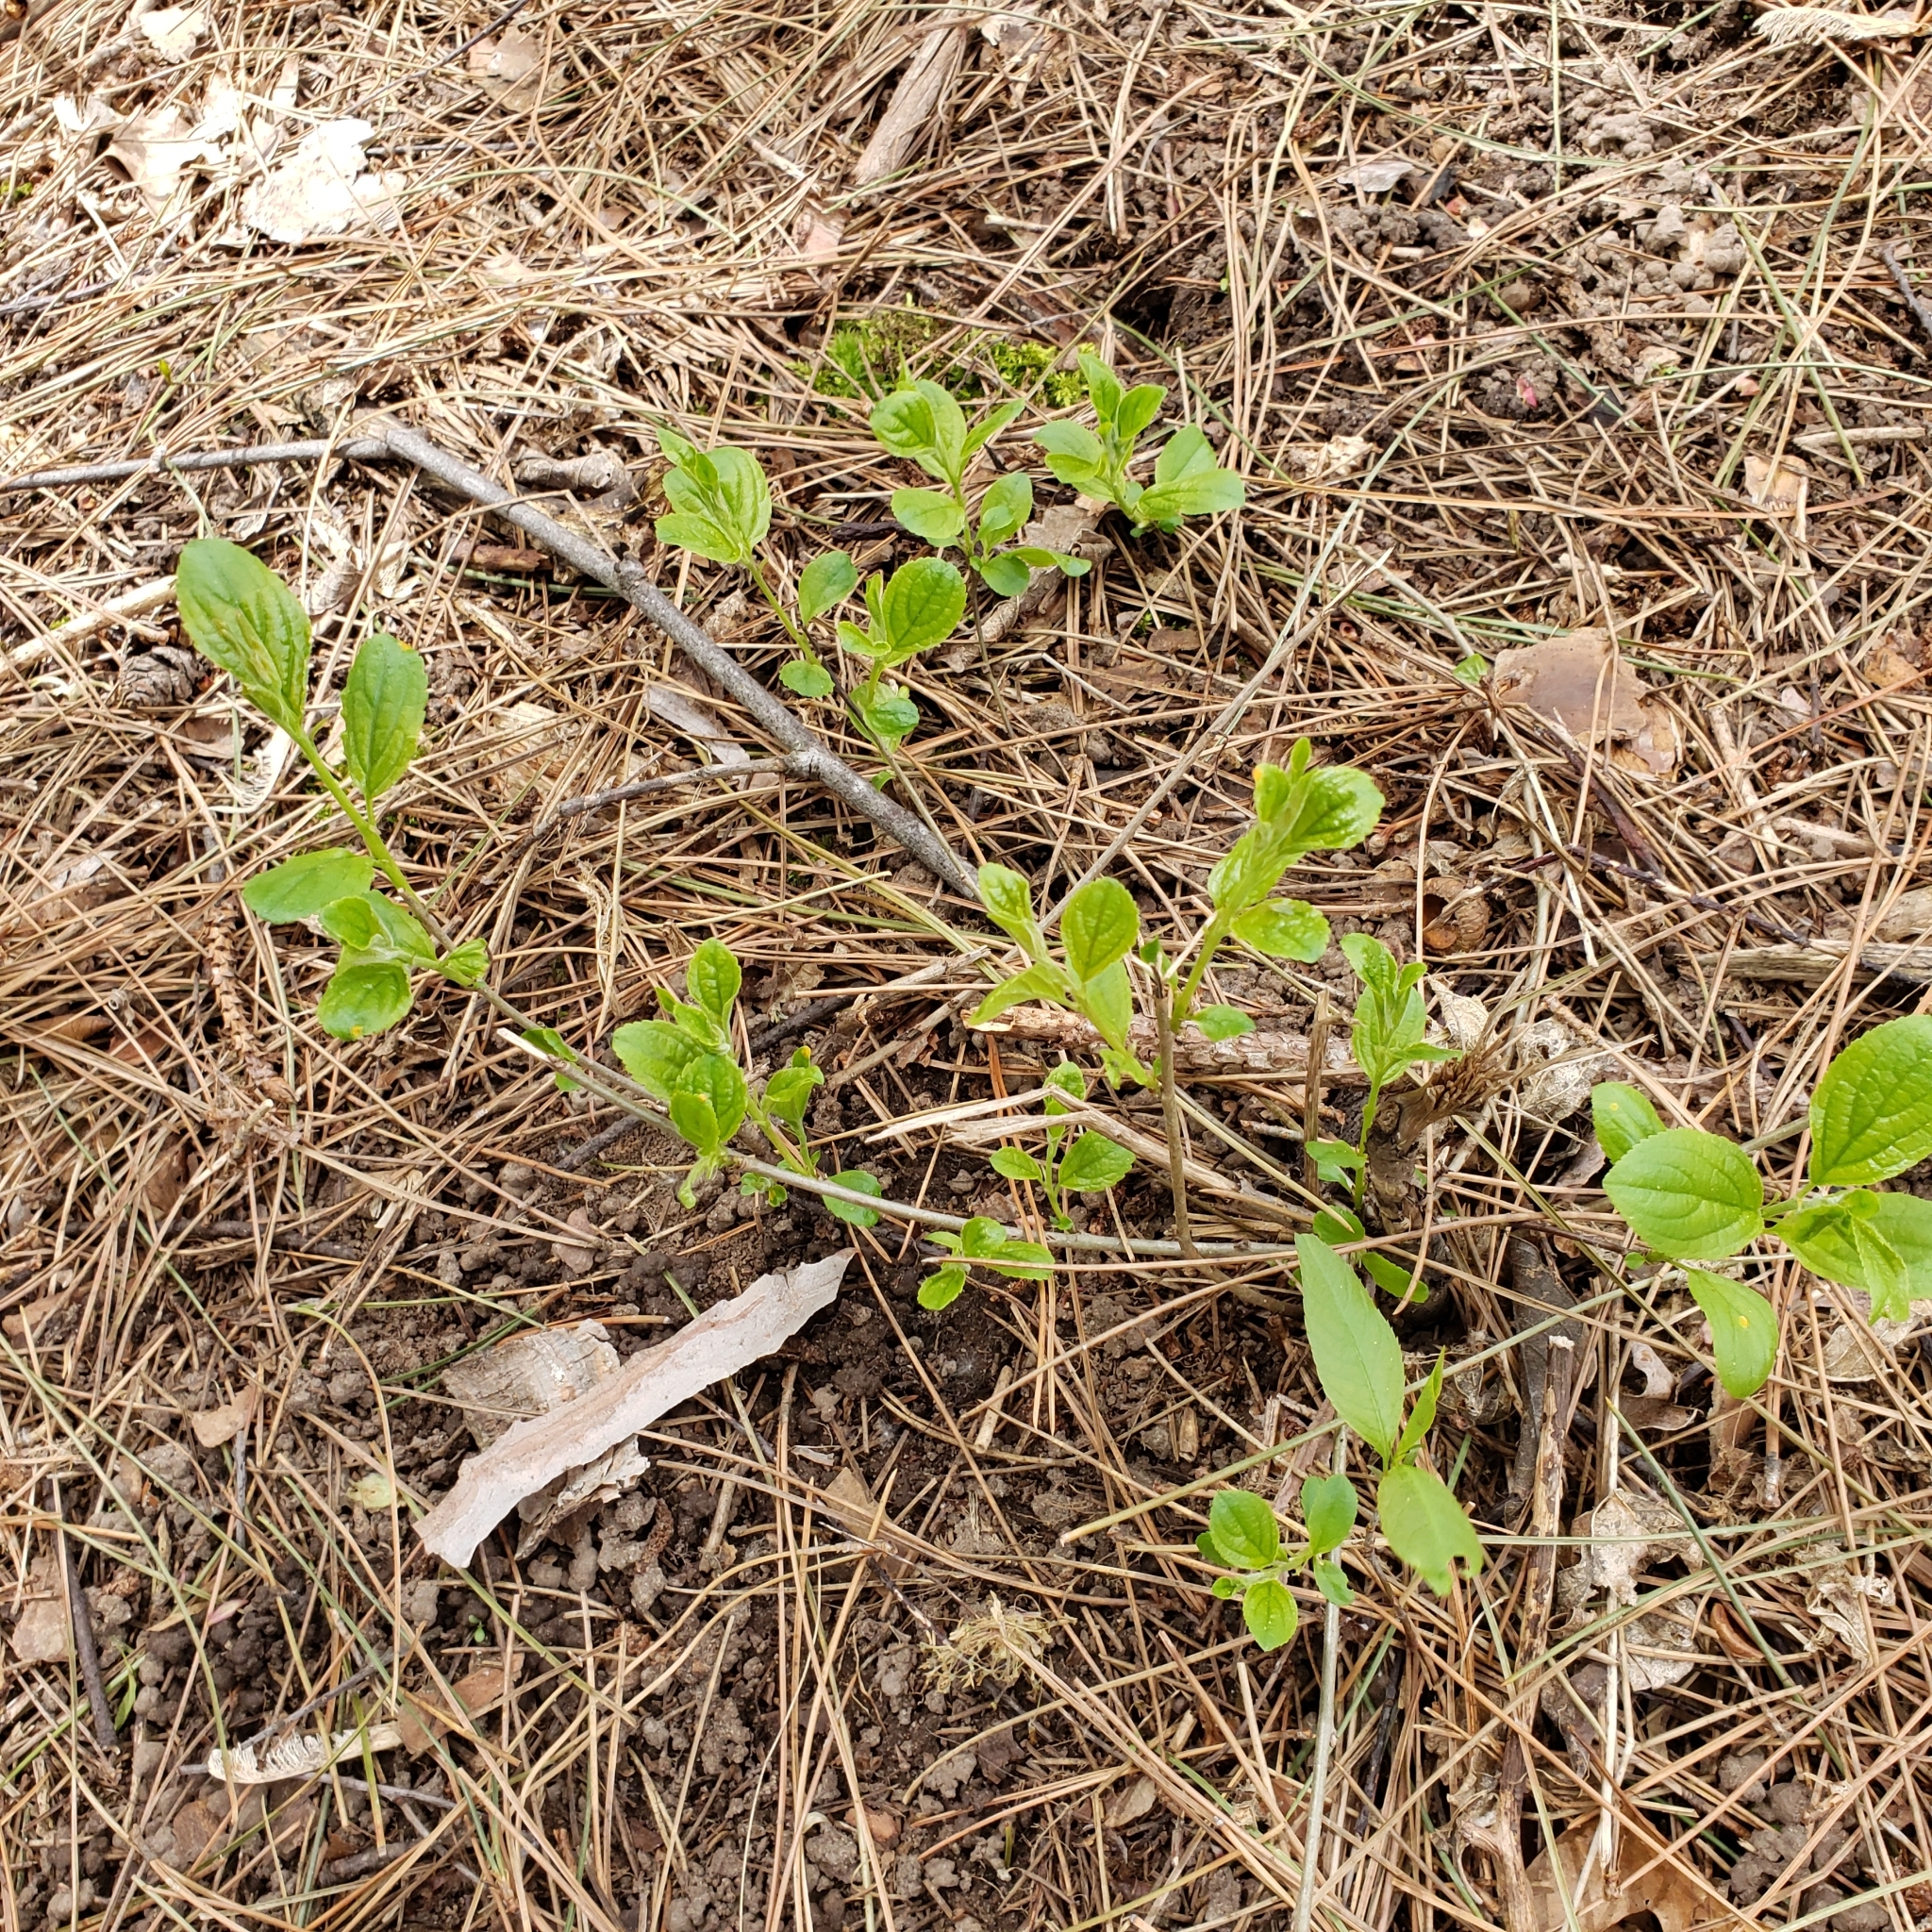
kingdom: Plantae
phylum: Tracheophyta
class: Magnoliopsida
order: Rosales
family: Rhamnaceae
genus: Rhamnus
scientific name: Rhamnus cathartica
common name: Common buckthorn
